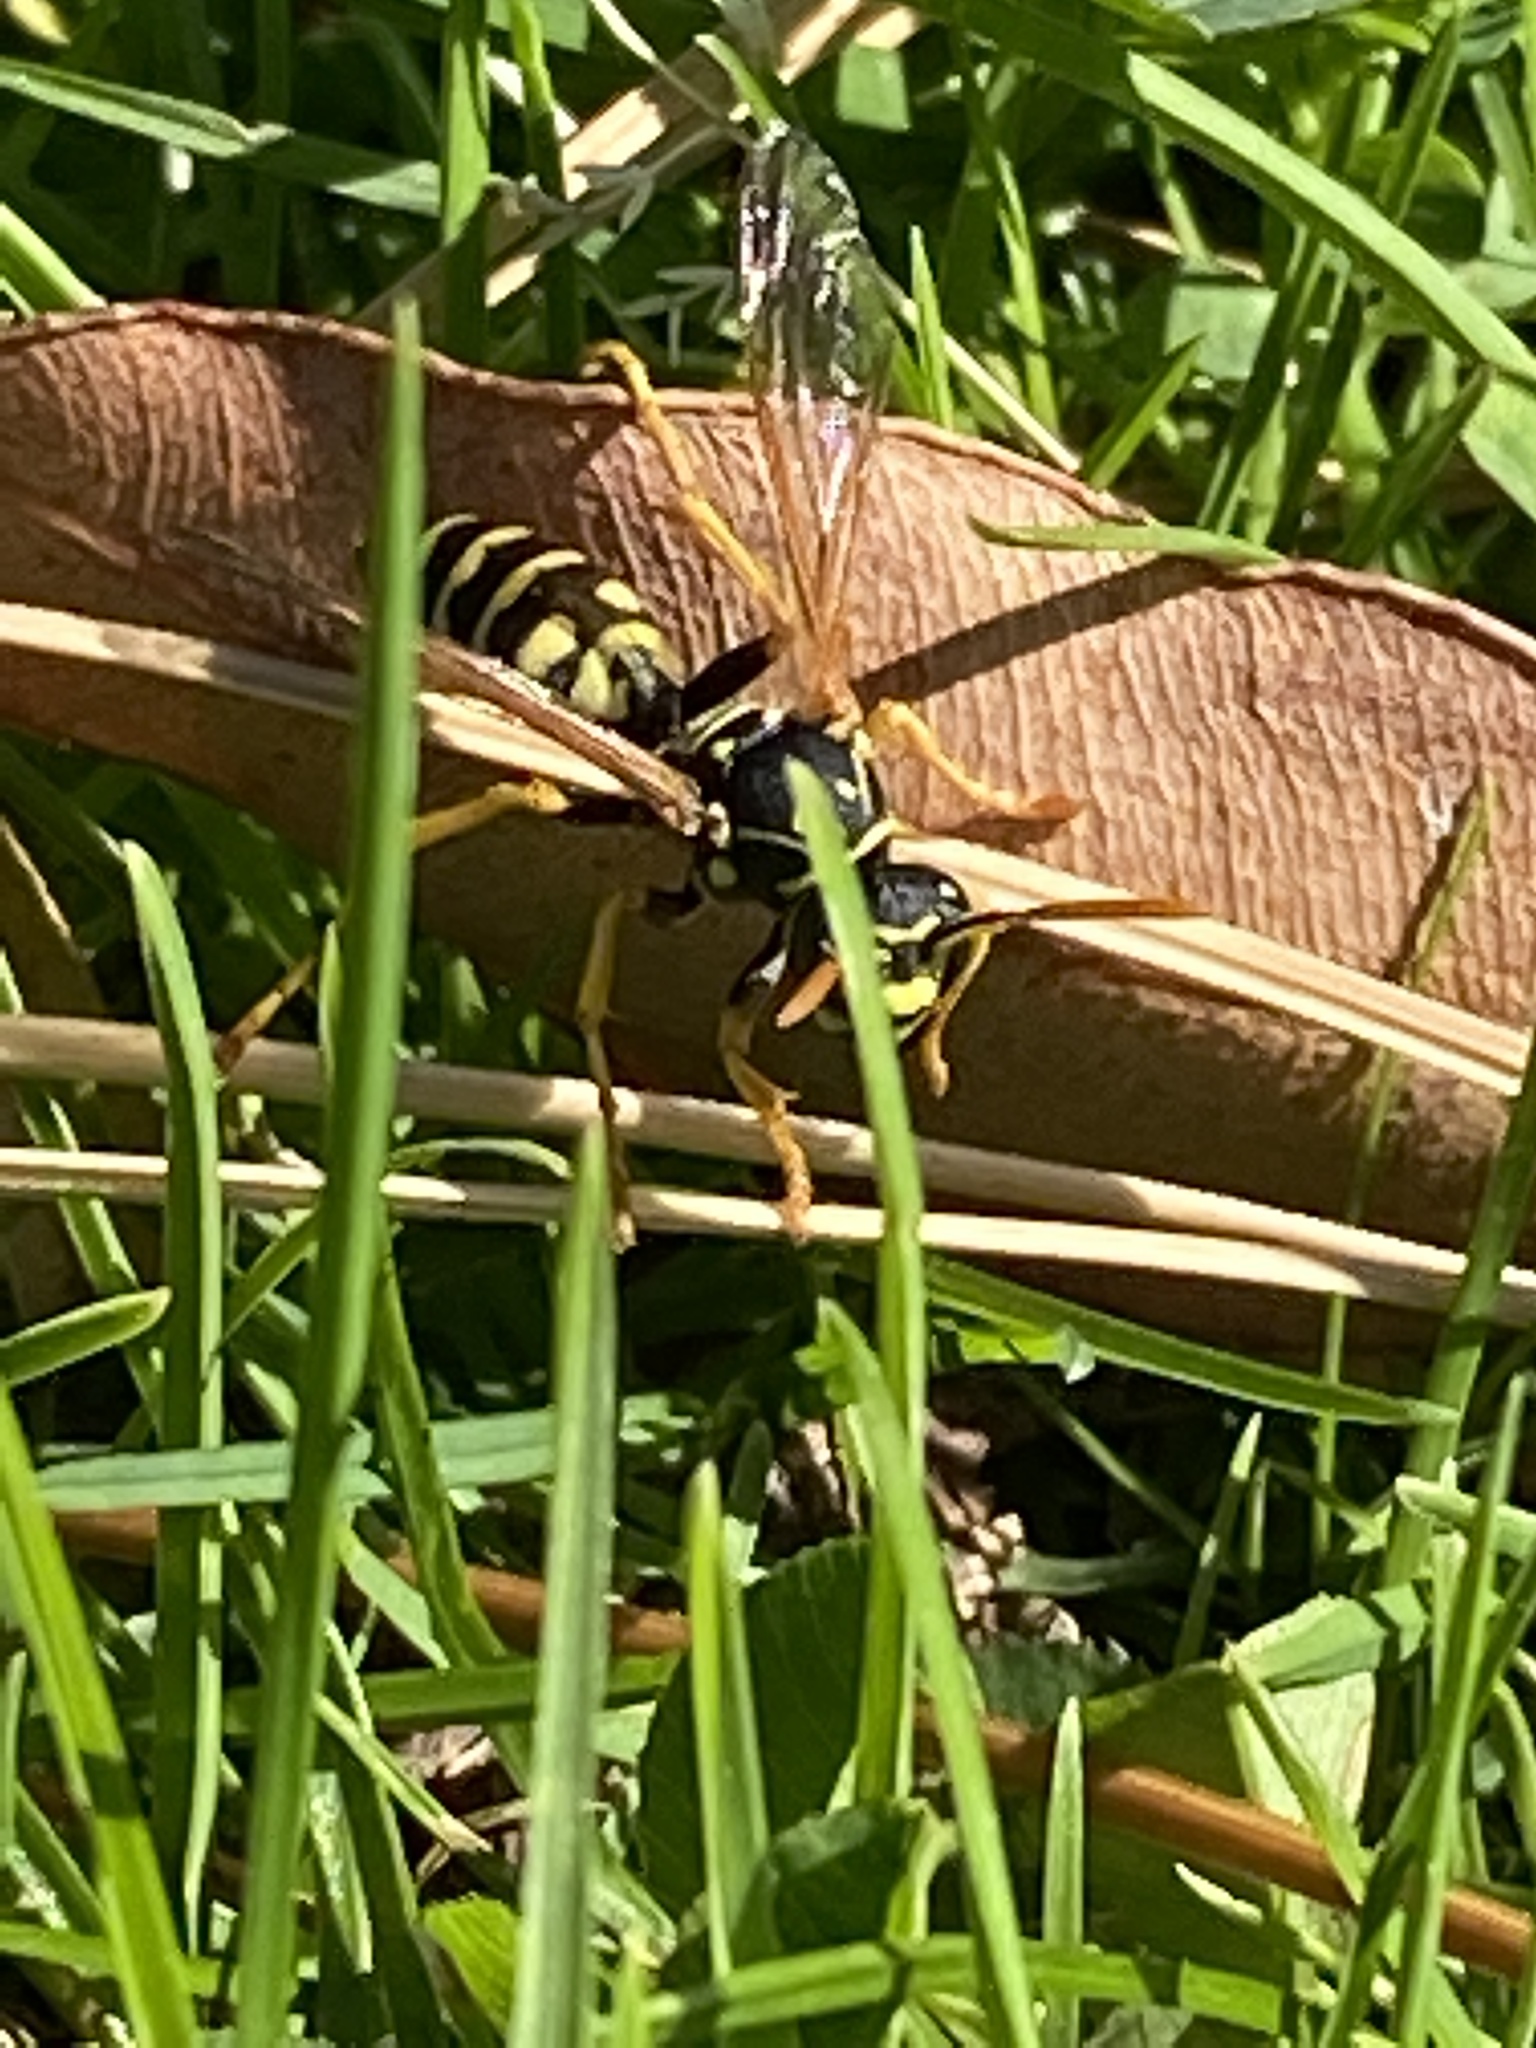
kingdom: Animalia
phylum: Arthropoda
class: Insecta
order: Hymenoptera
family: Eumenidae
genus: Polistes
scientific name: Polistes dominula
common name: Paper wasp
